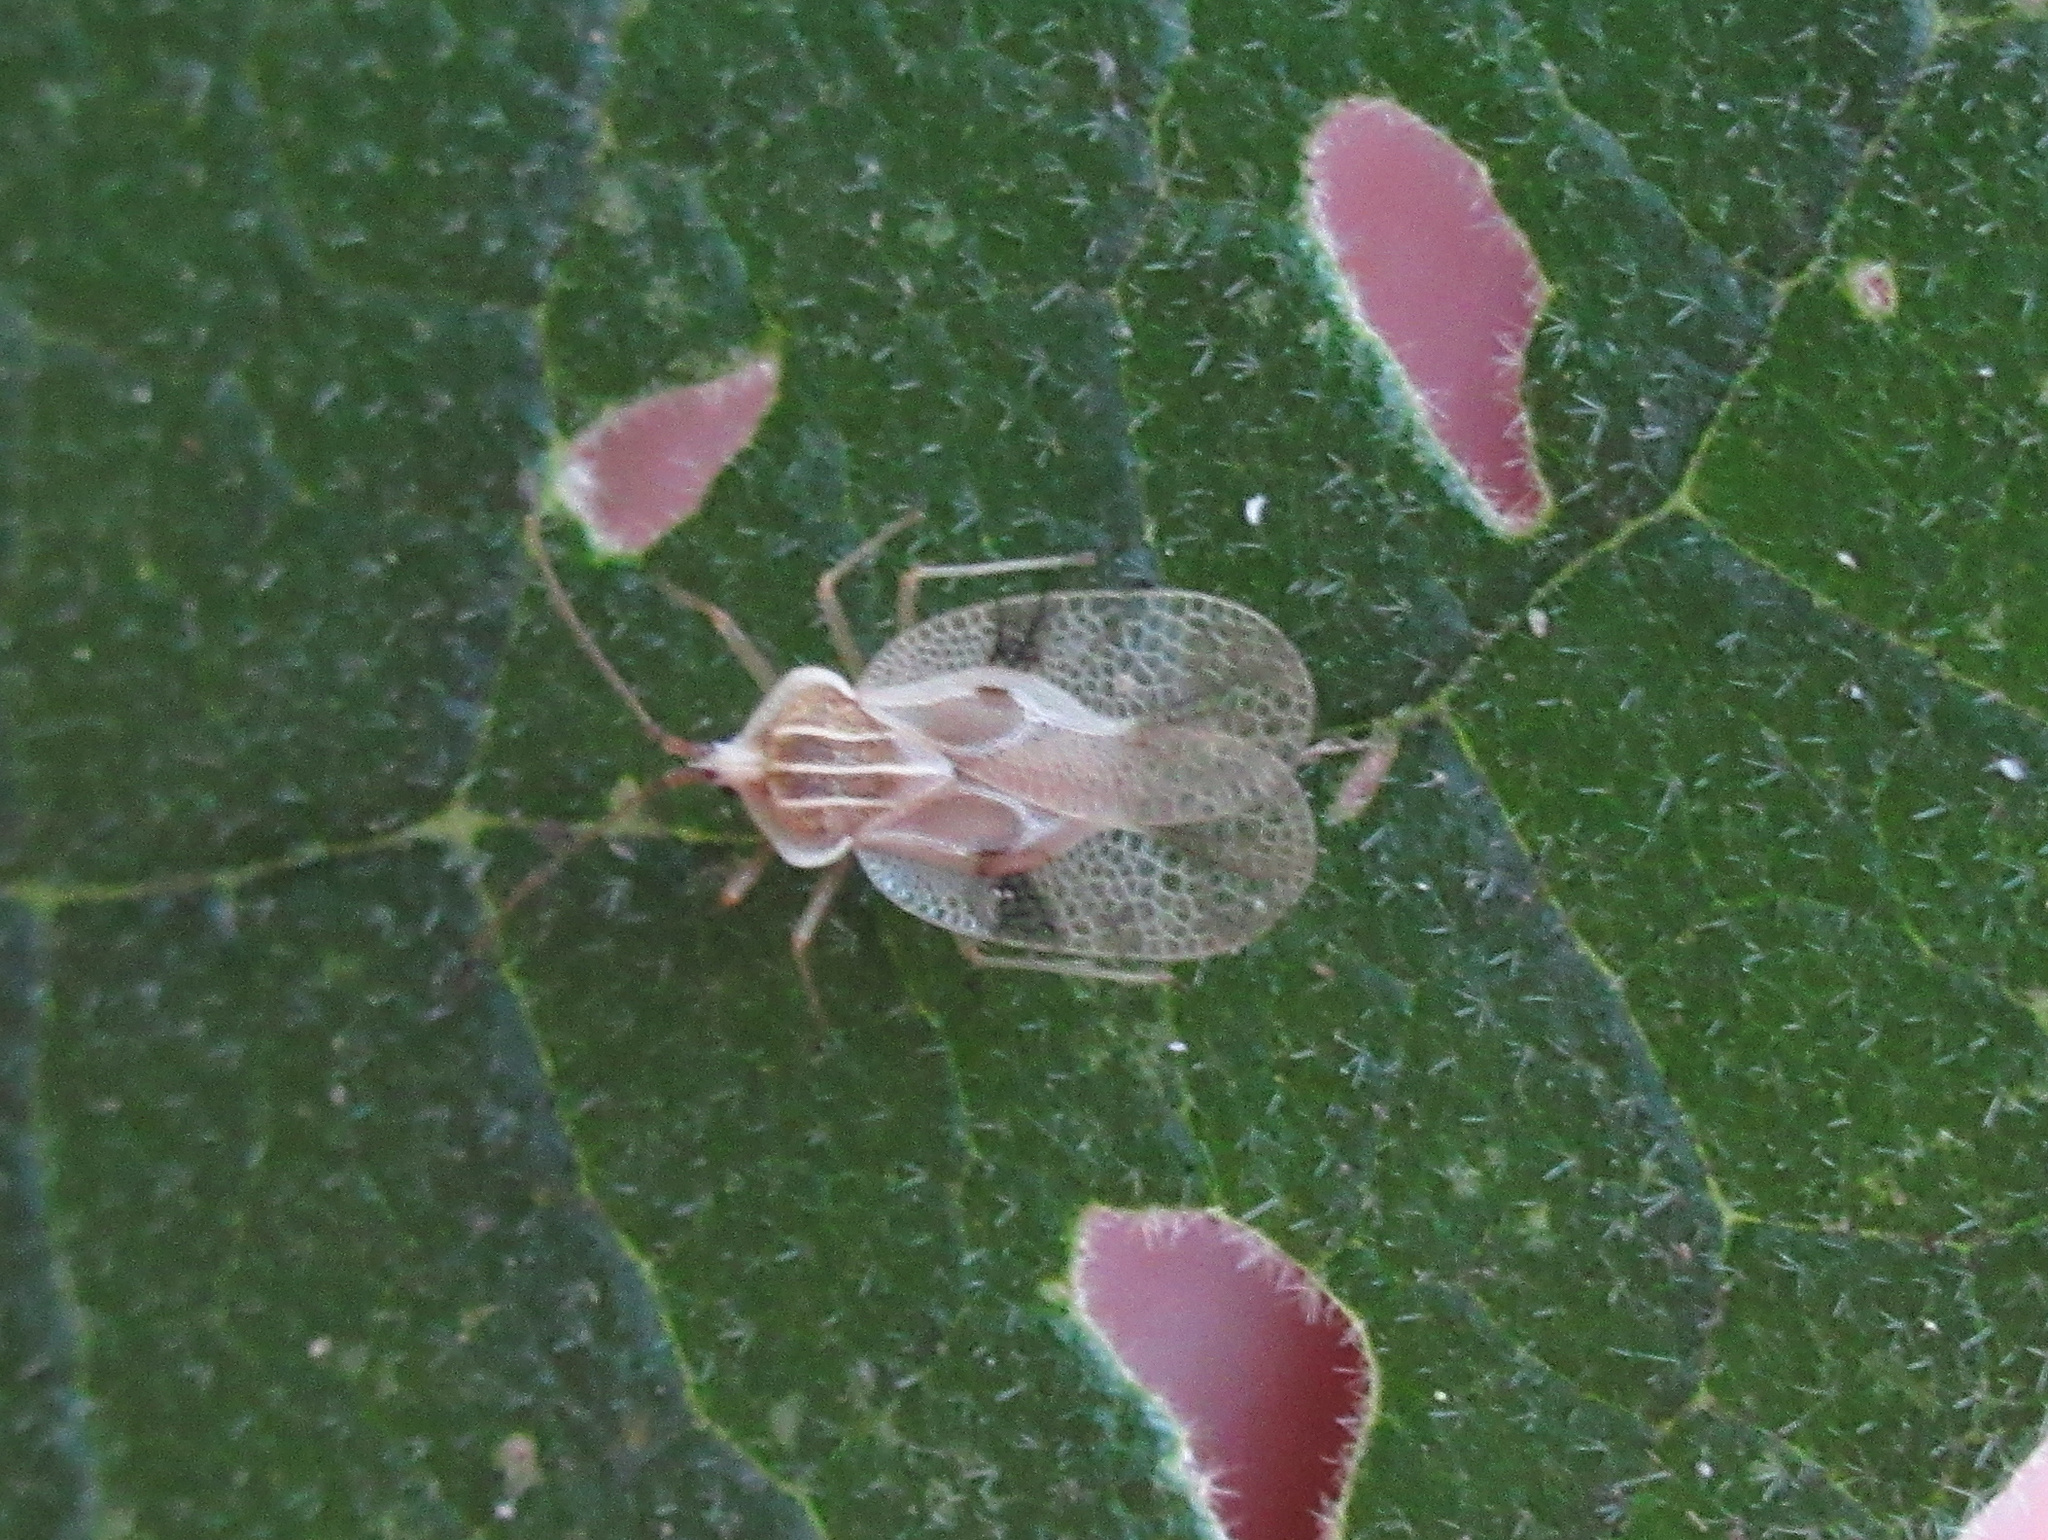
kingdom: Animalia
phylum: Arthropoda
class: Insecta
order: Hemiptera
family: Tingidae
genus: Gargaphia
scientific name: Gargaphia decoris
